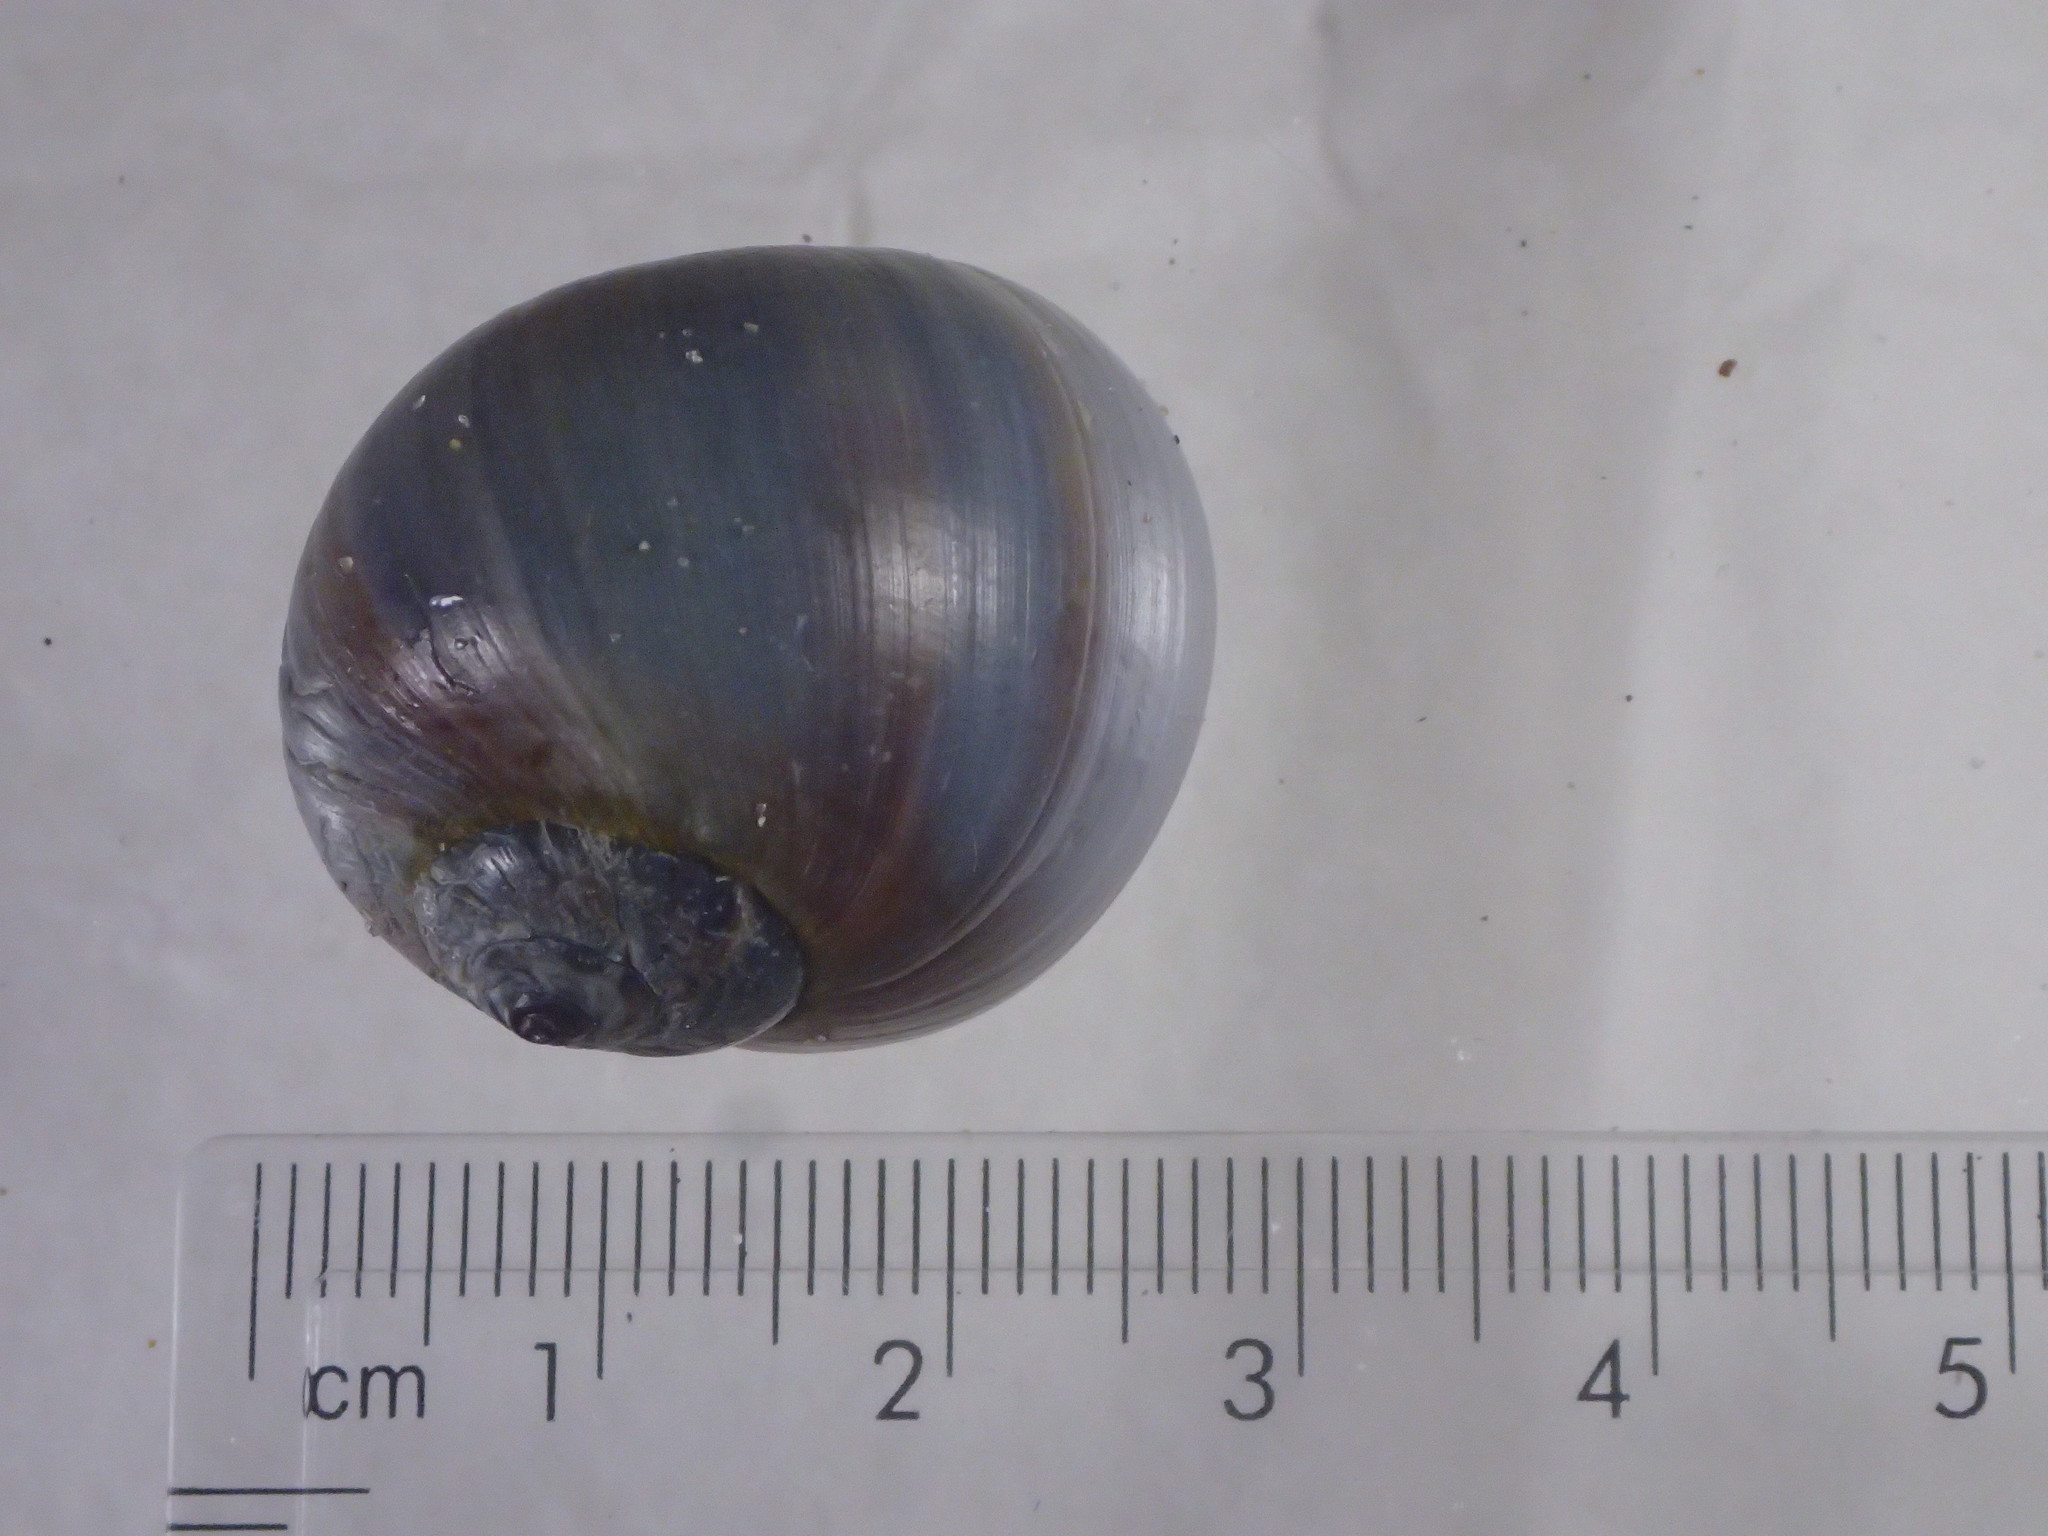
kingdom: Animalia
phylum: Mollusca
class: Gastropoda
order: Littorinimorpha
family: Naticidae
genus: Euspira
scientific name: Euspira heros
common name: Common northern moonsnail
